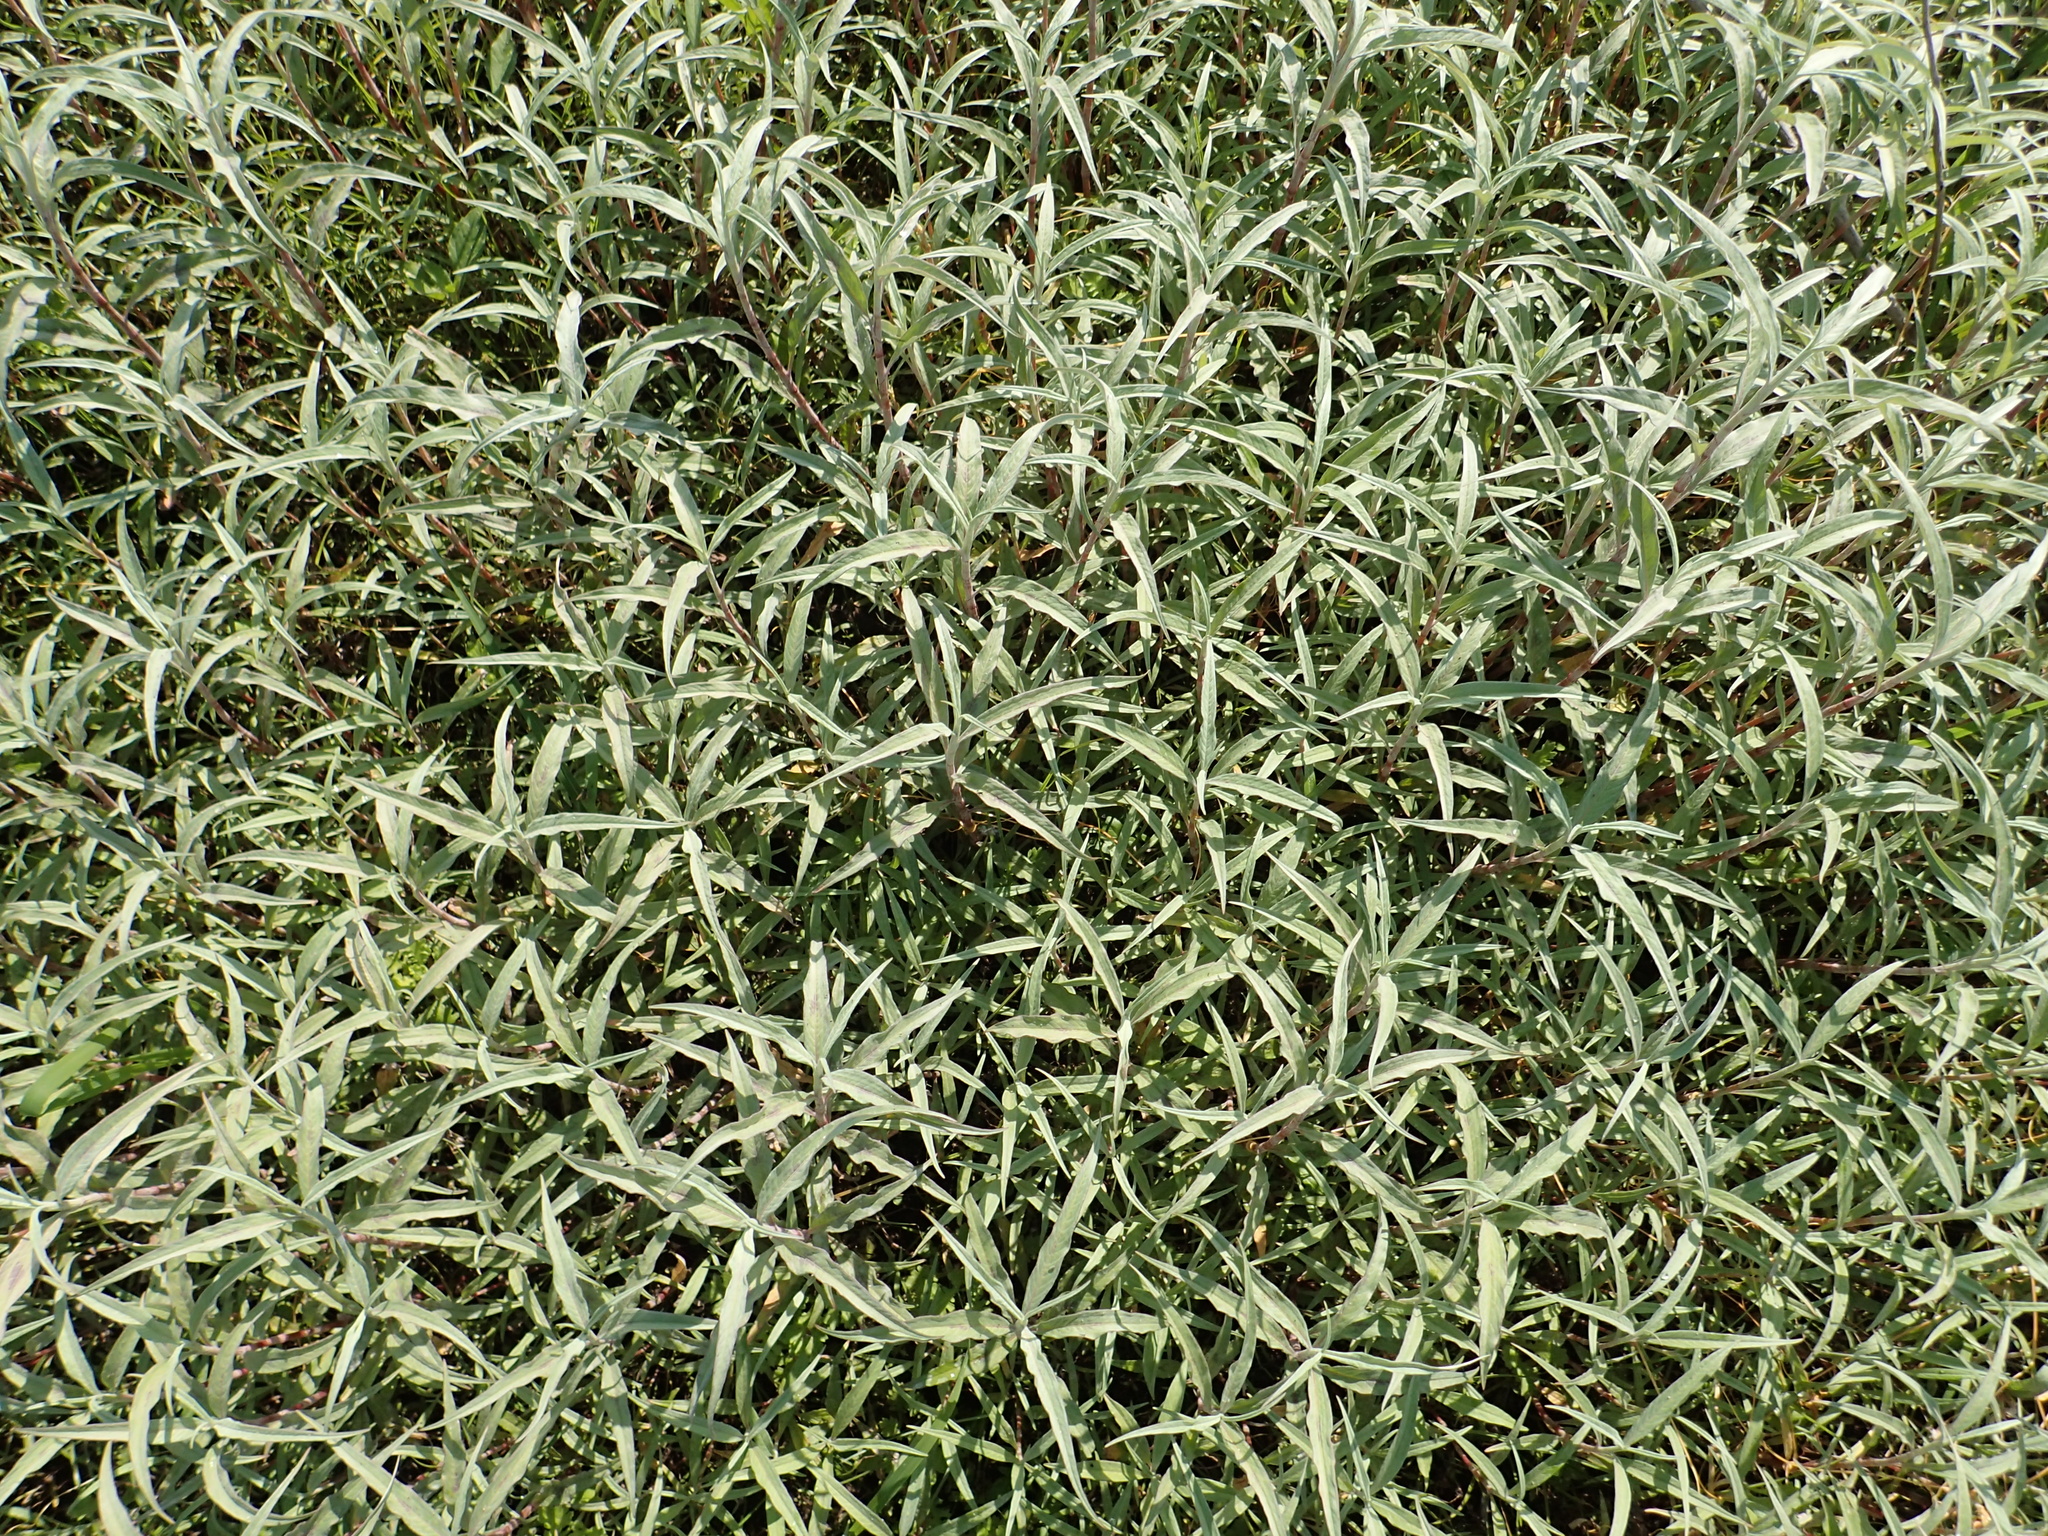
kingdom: Plantae
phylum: Tracheophyta
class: Magnoliopsida
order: Caryophyllales
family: Polygonaceae
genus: Persicaria
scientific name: Persicaria lanata
